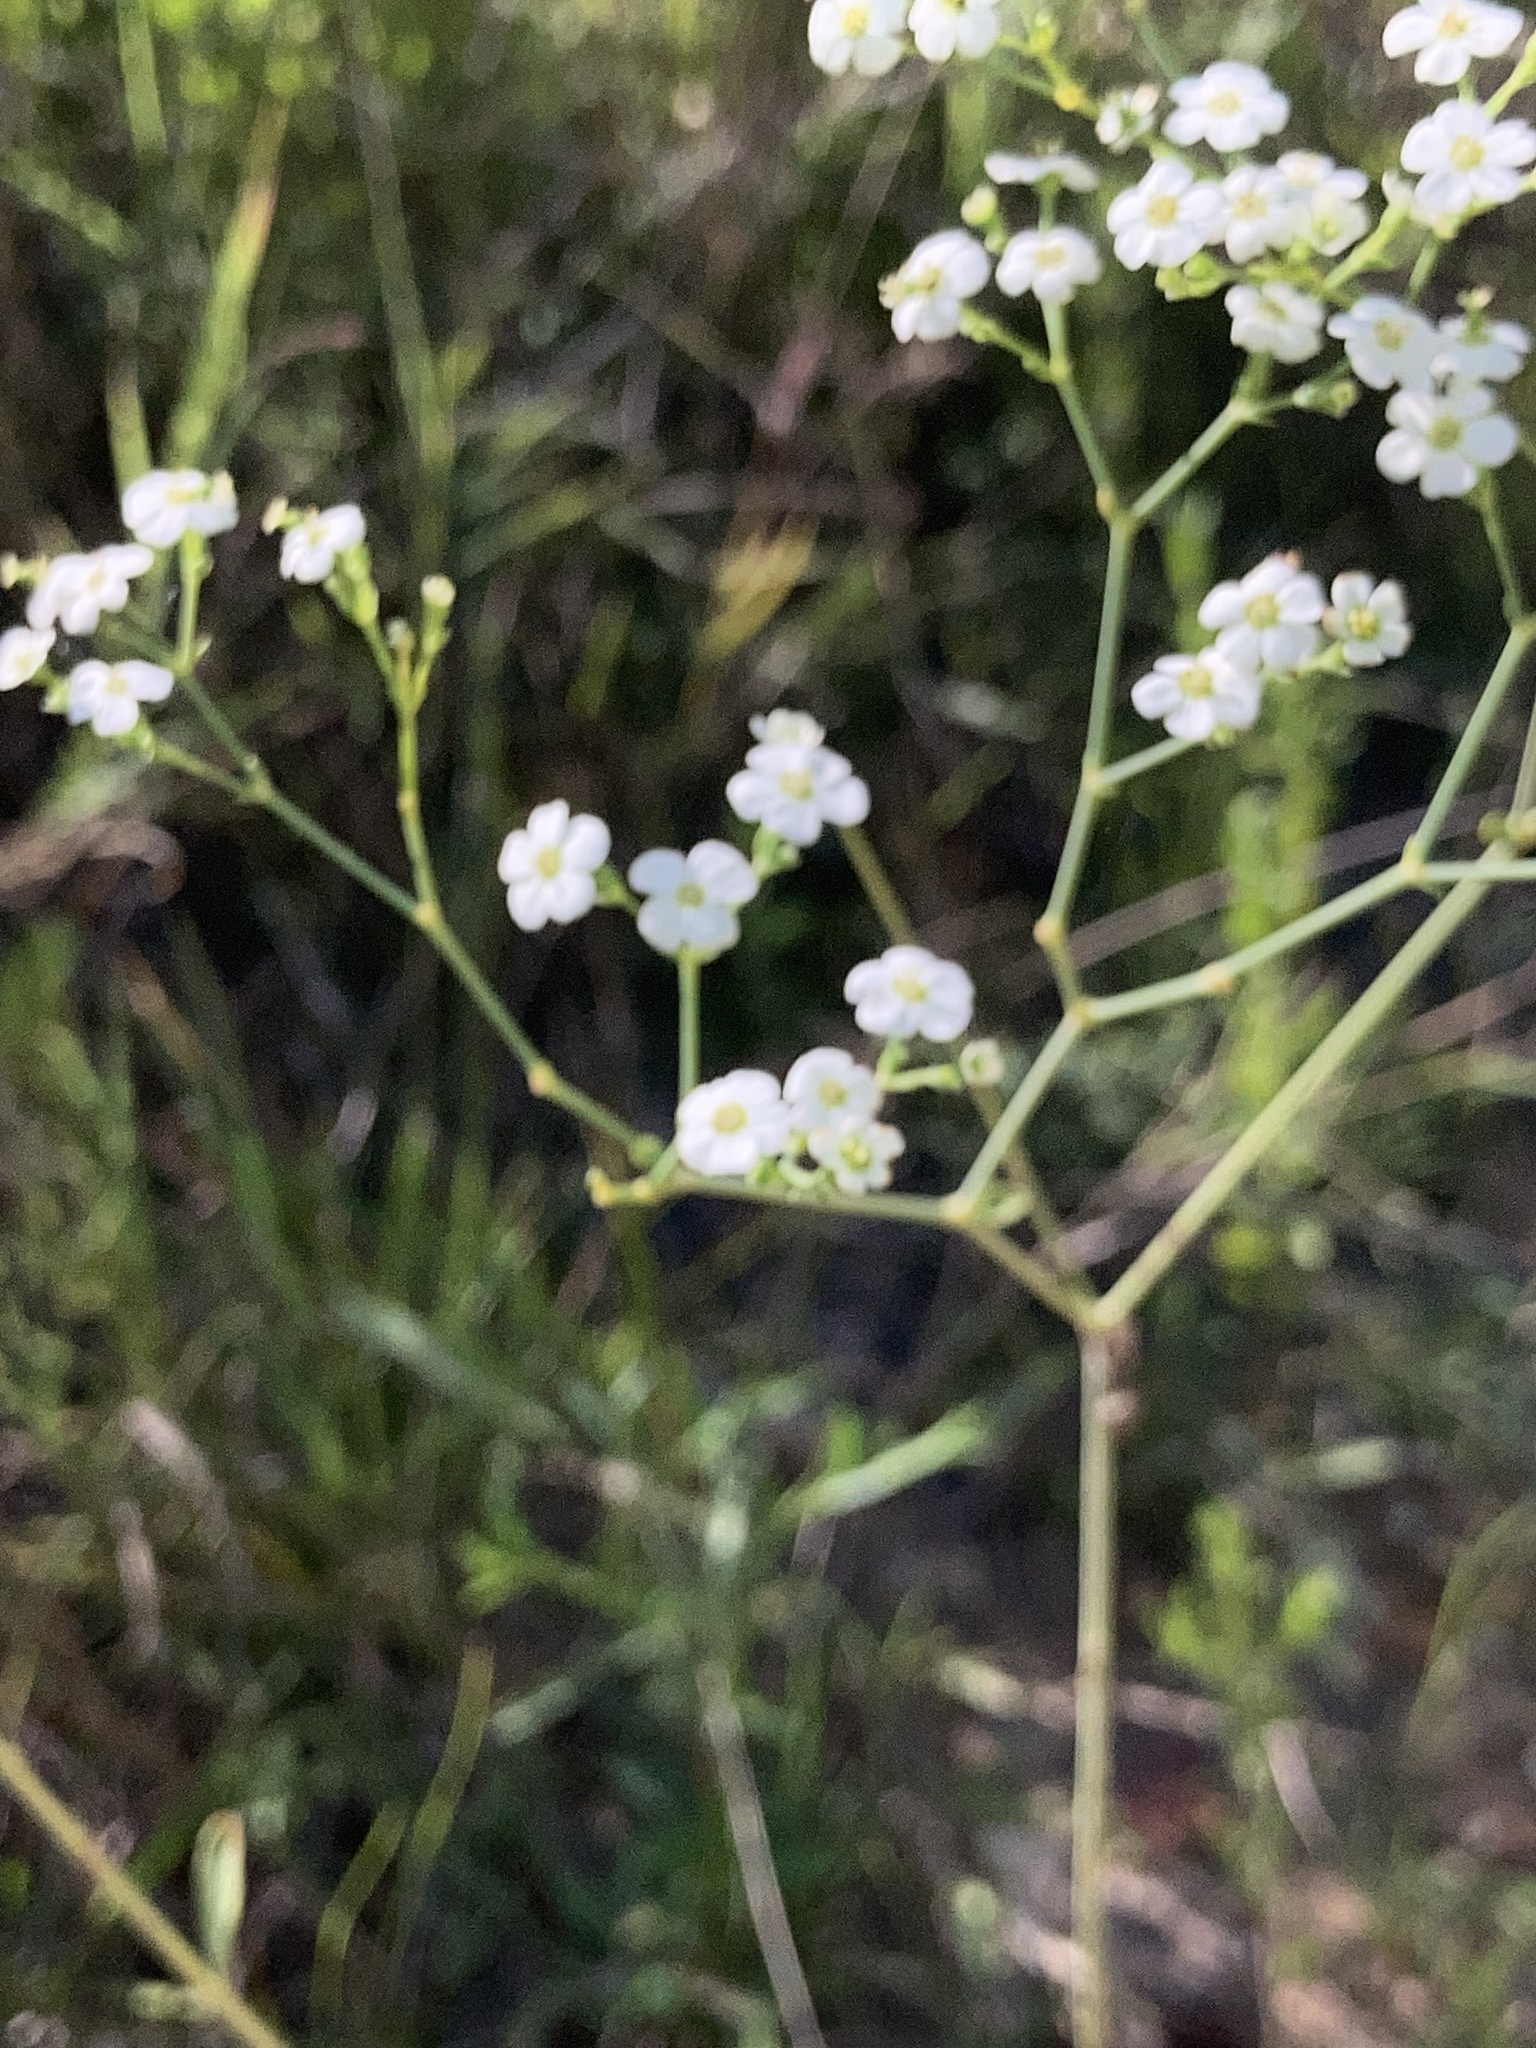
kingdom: Plantae
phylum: Tracheophyta
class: Magnoliopsida
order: Malpighiales
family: Euphorbiaceae
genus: Euphorbia
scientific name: Euphorbia corollata
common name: Flowering spurge
